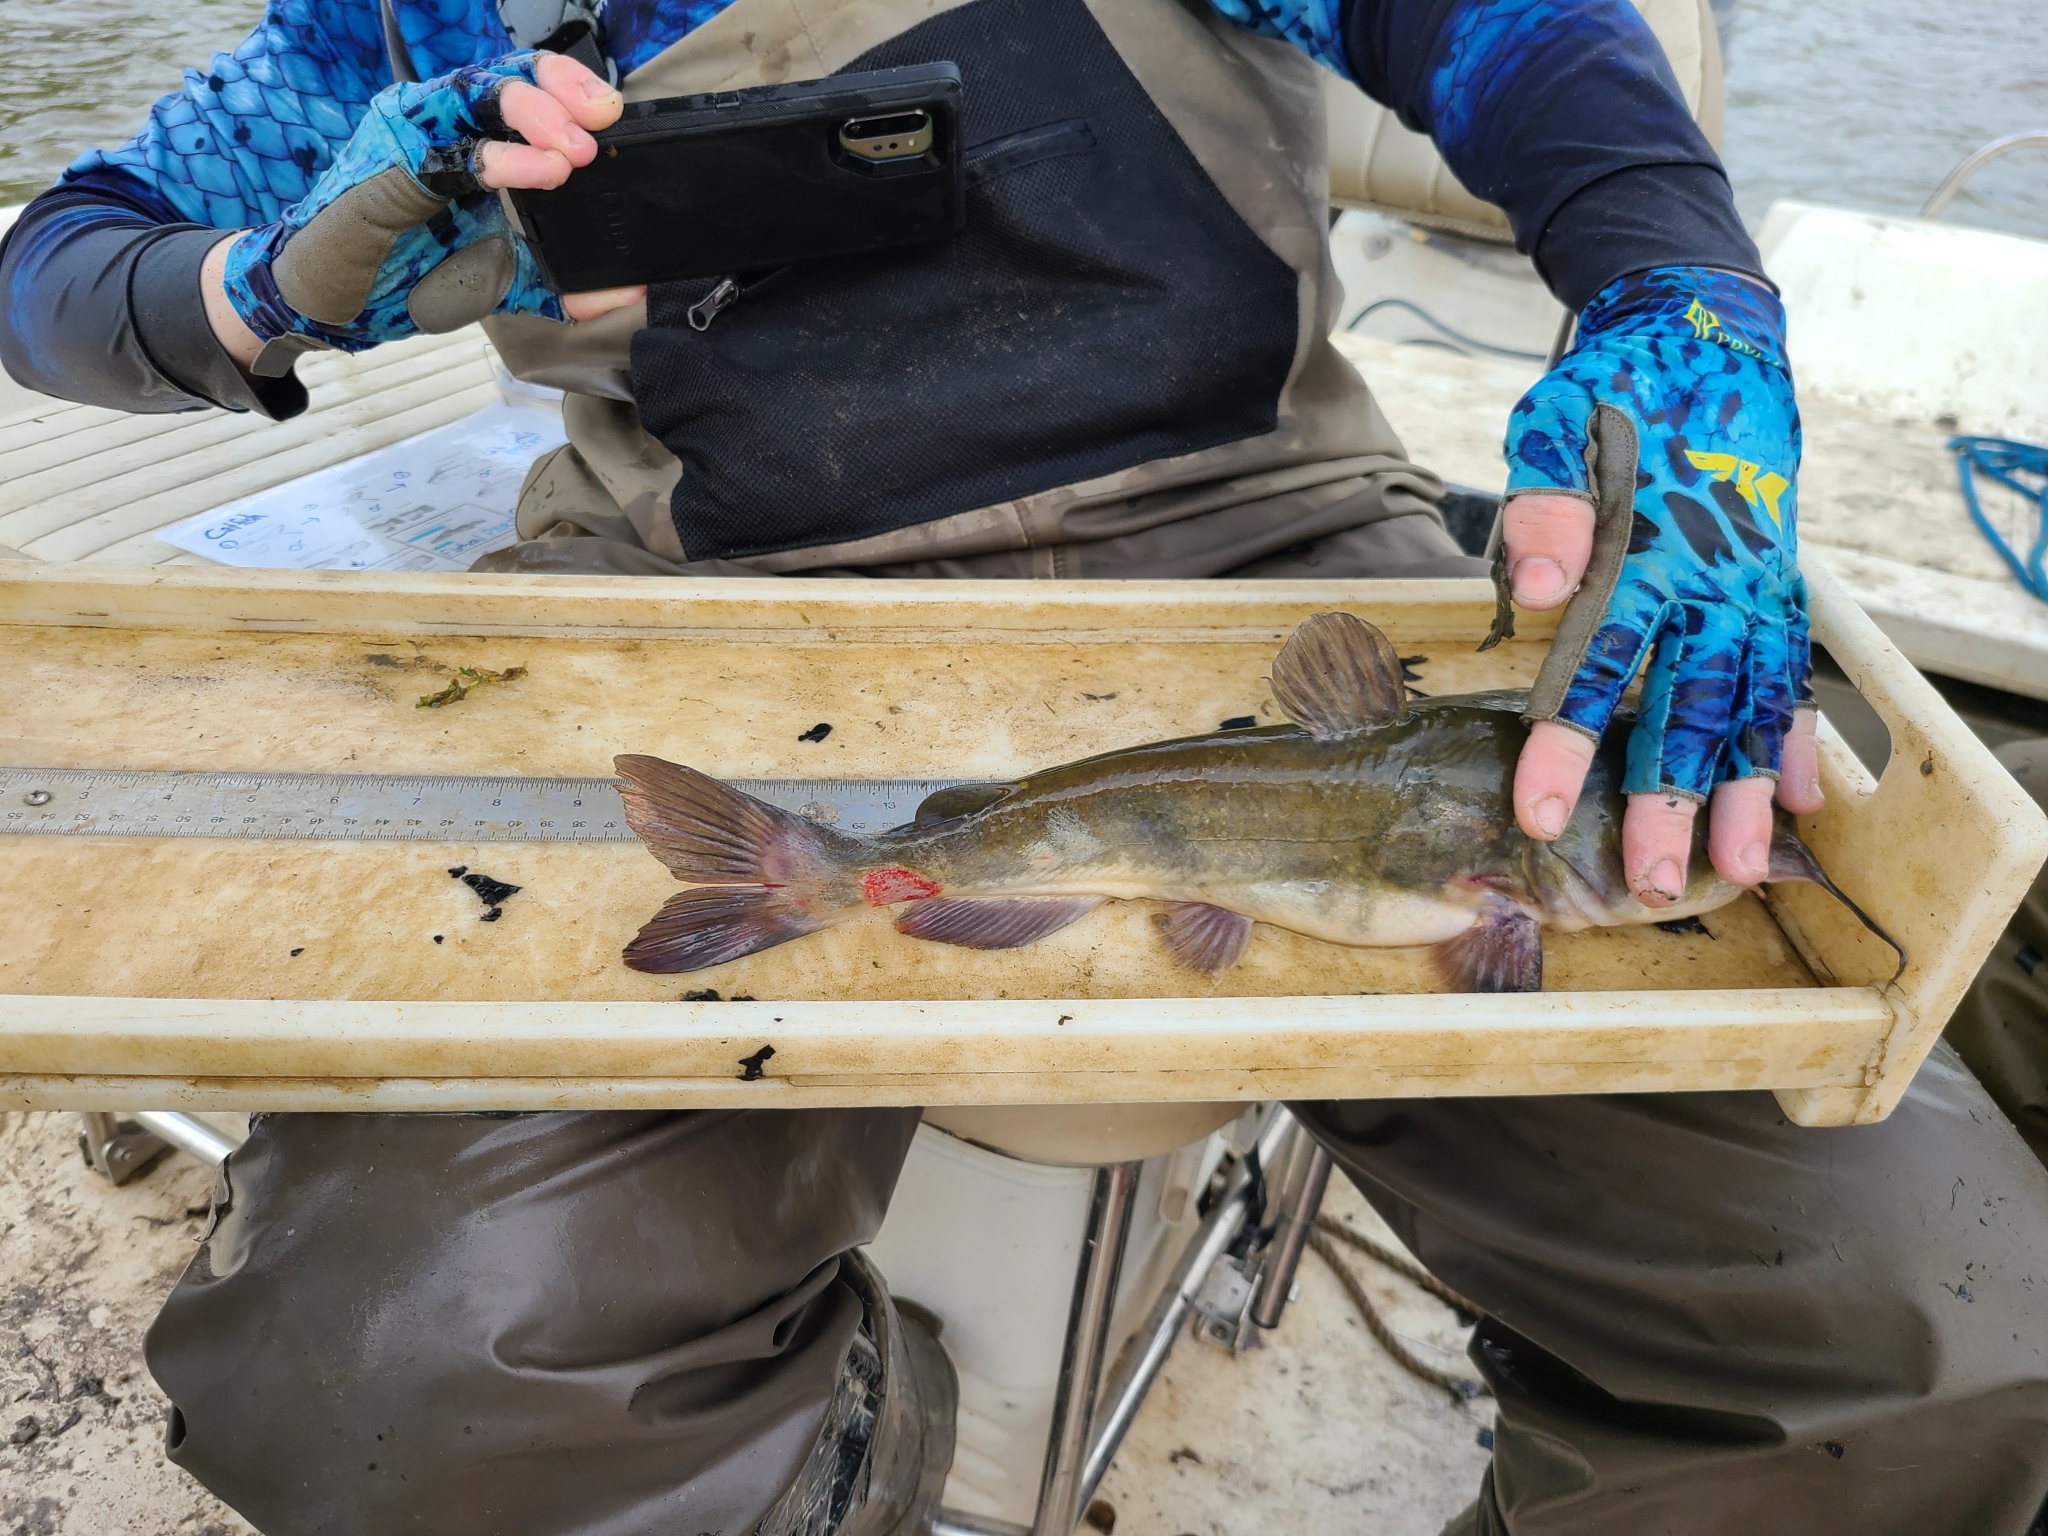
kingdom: Animalia
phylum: Chordata
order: Siluriformes
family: Ictaluridae
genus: Ameiurus
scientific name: Ameiurus catus
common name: White catfish
